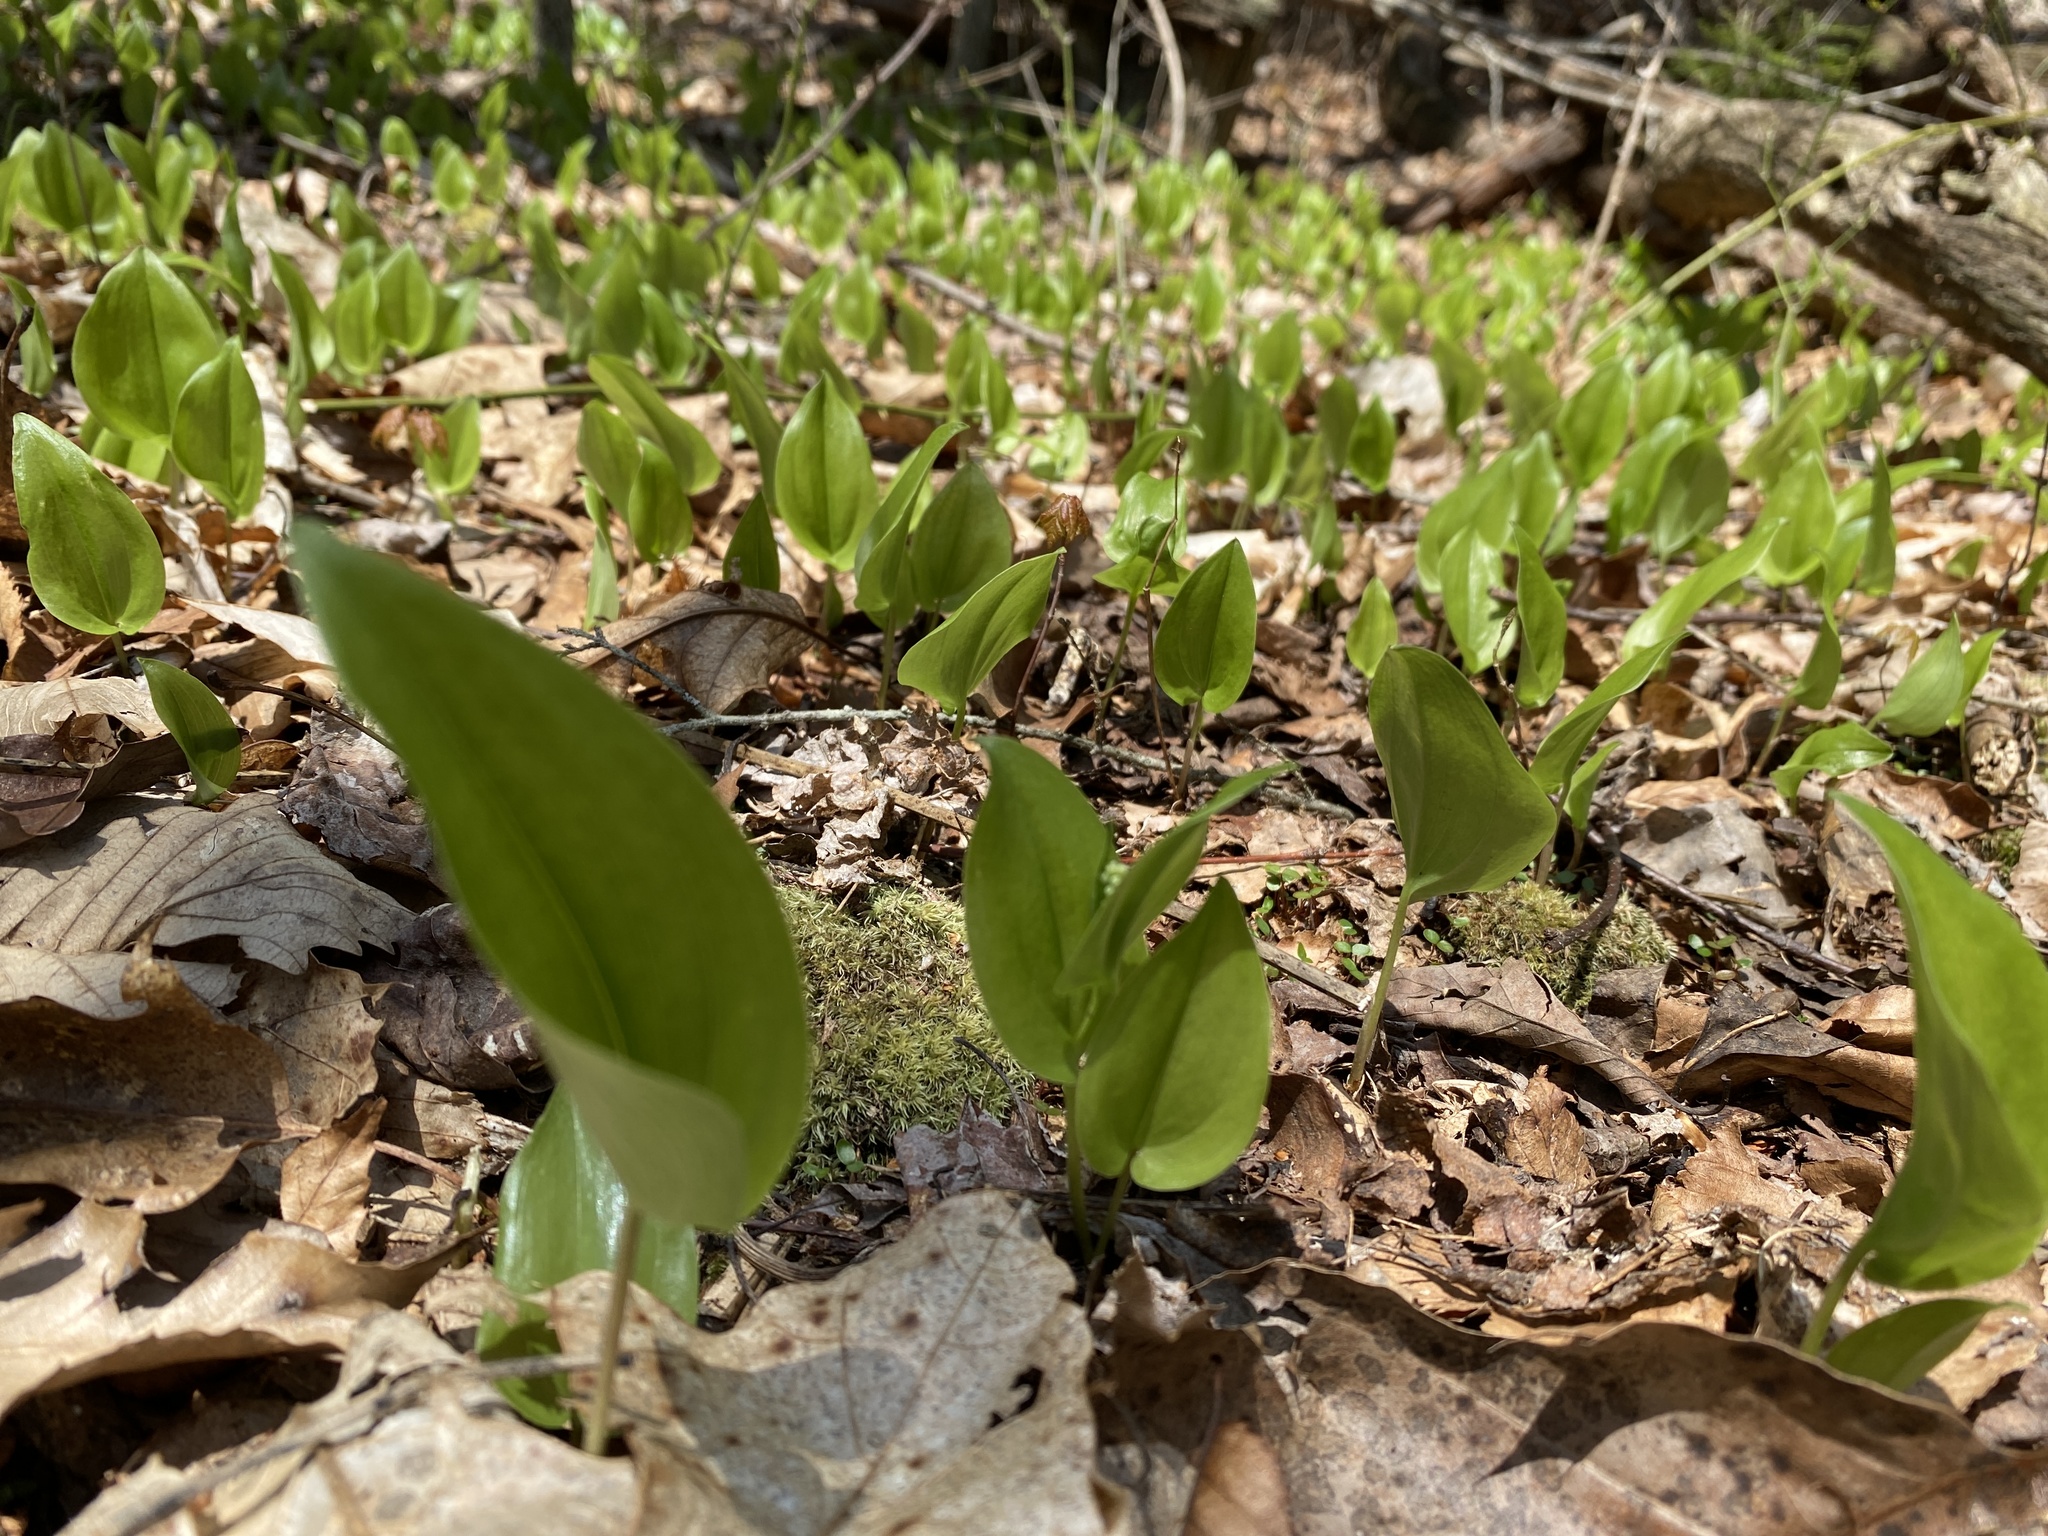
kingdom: Plantae
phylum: Tracheophyta
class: Liliopsida
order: Asparagales
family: Asparagaceae
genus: Maianthemum
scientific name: Maianthemum canadense
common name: False lily-of-the-valley
